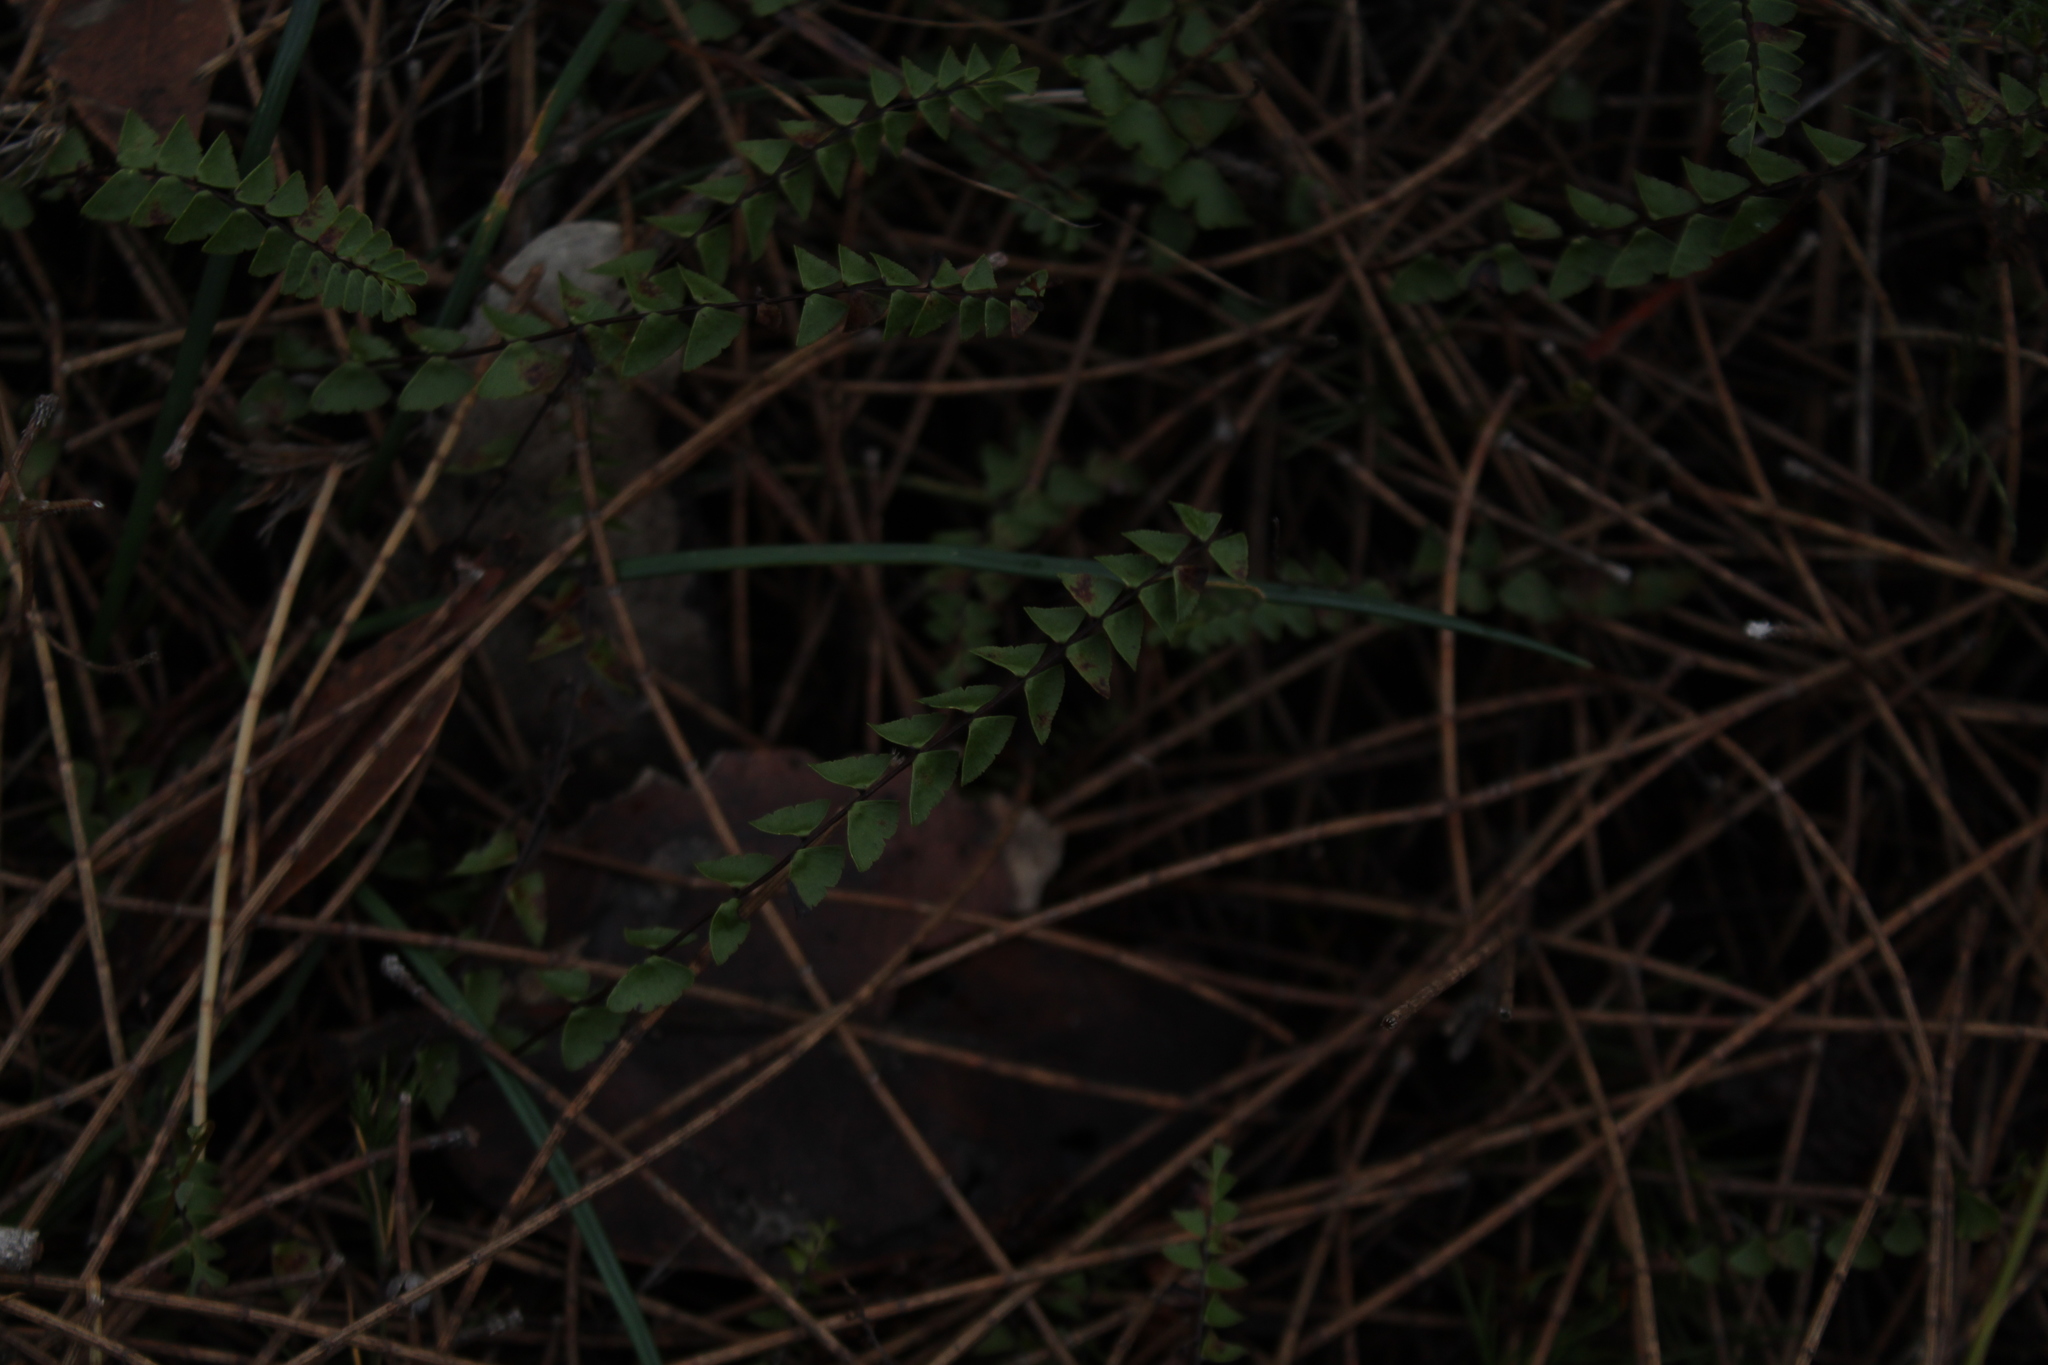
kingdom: Plantae
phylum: Tracheophyta
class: Polypodiopsida
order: Polypodiales
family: Lindsaeaceae
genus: Lindsaea
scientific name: Lindsaea linearis
